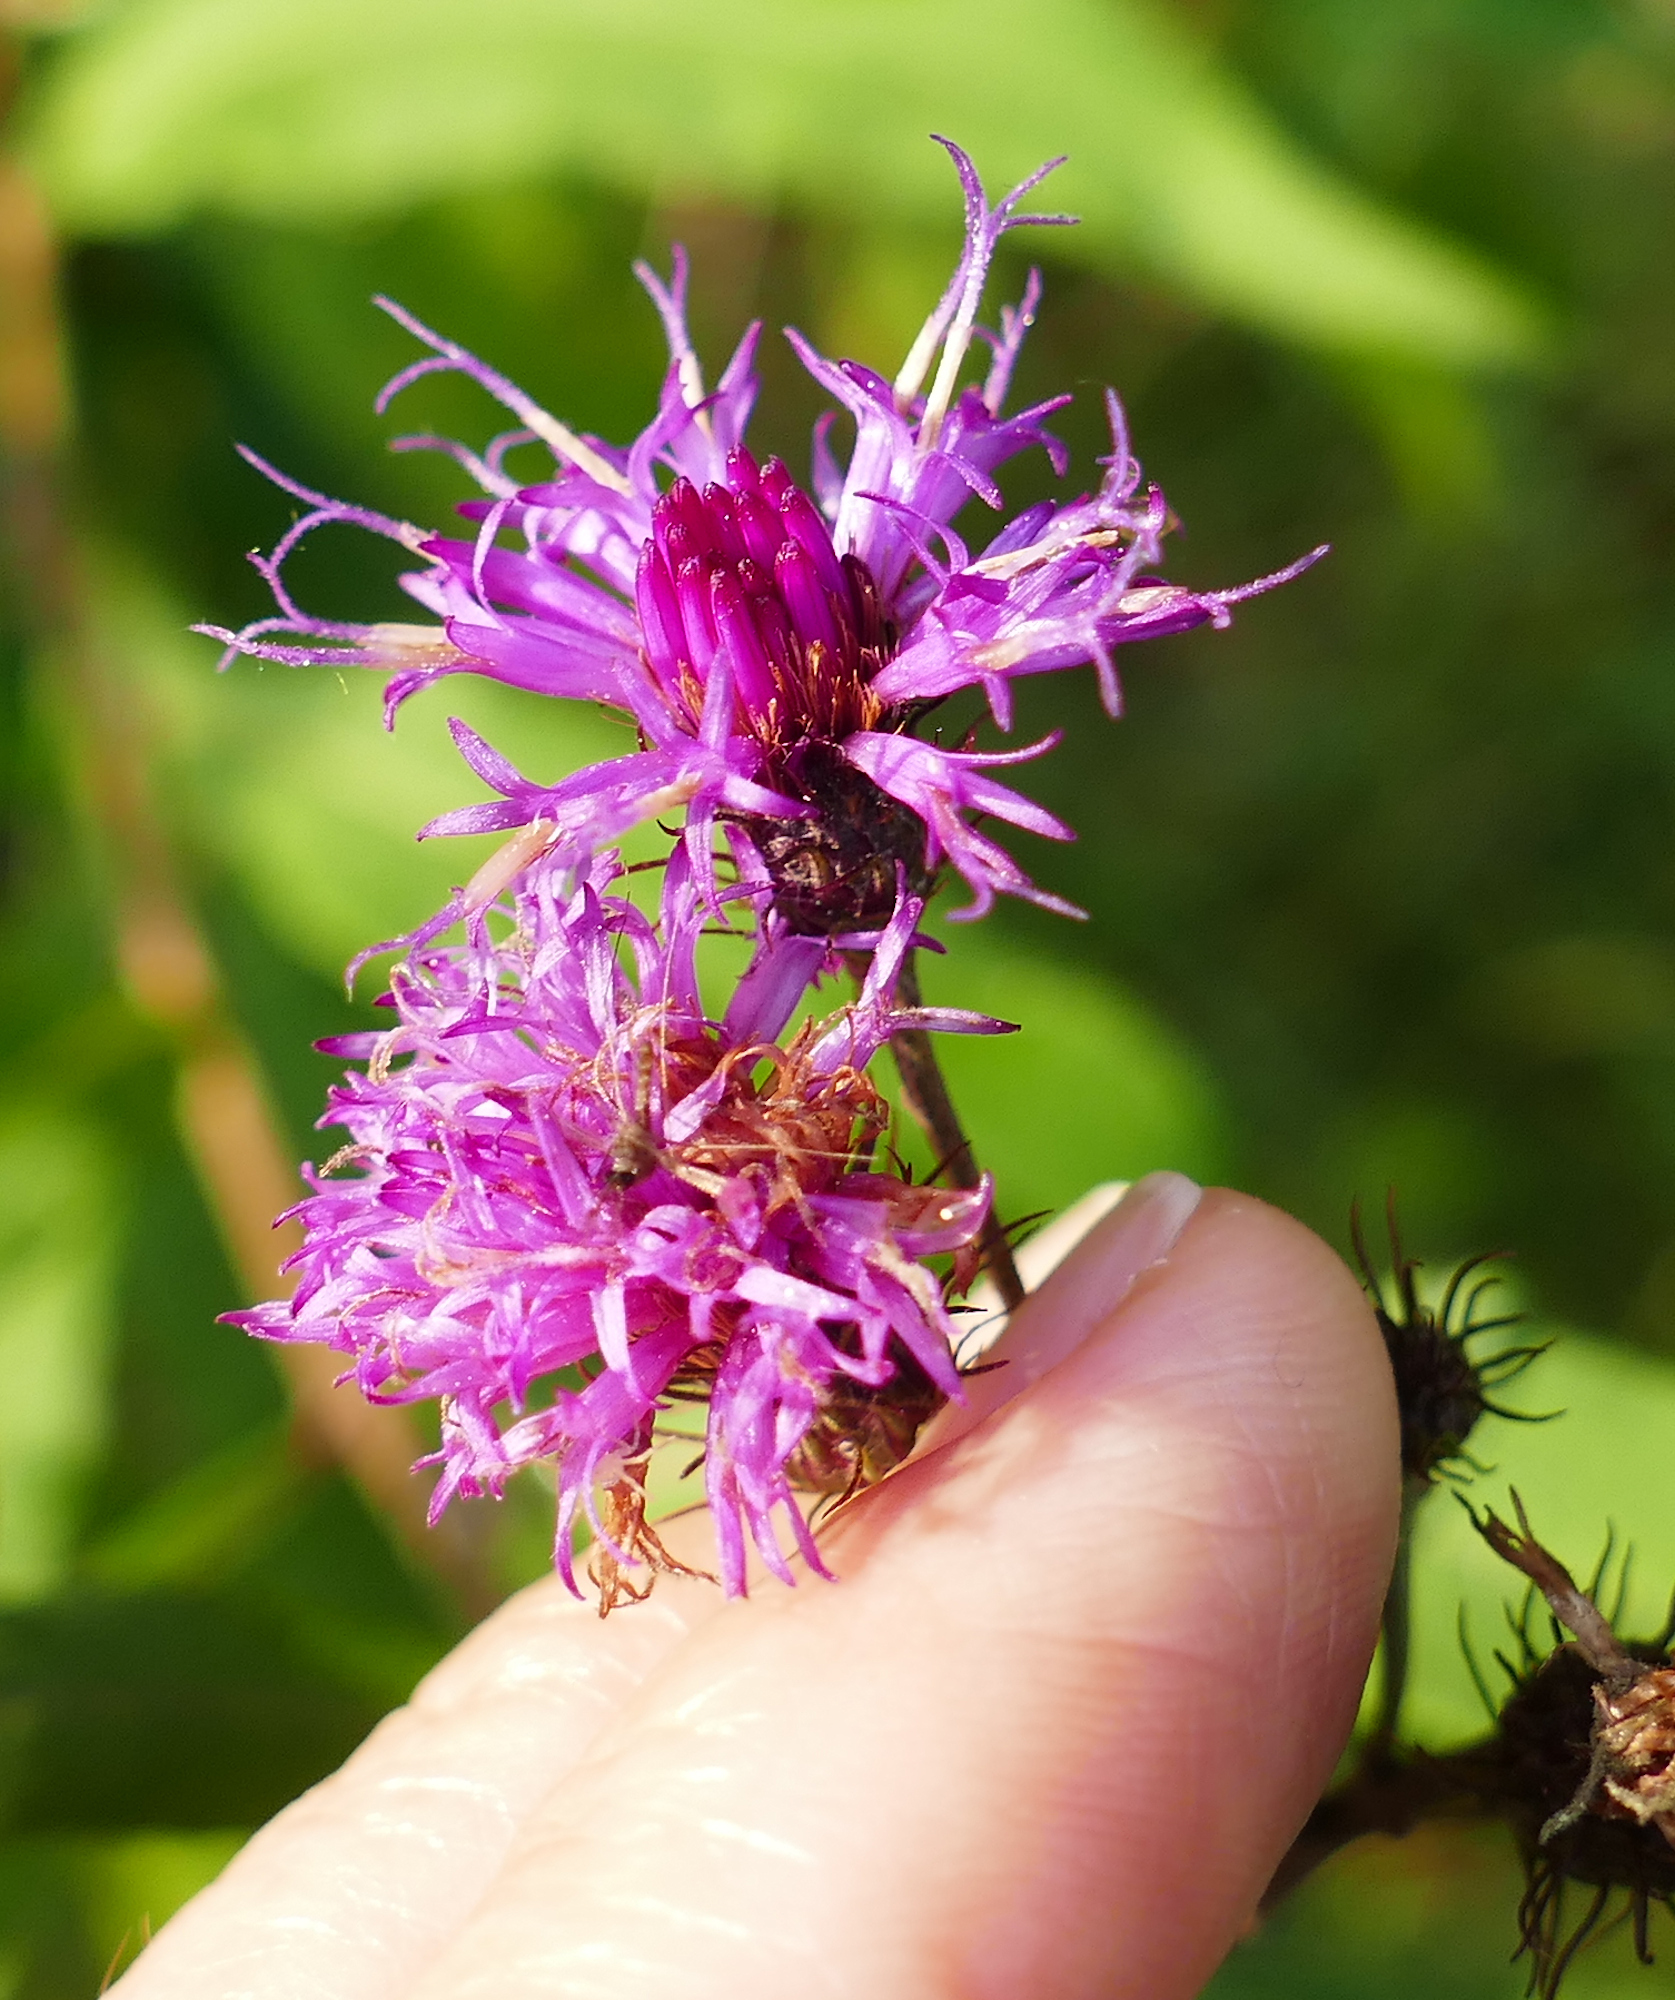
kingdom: Plantae
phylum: Tracheophyta
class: Magnoliopsida
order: Asterales
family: Asteraceae
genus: Vernonia
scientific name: Vernonia noveboracensis
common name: New york ironweed
